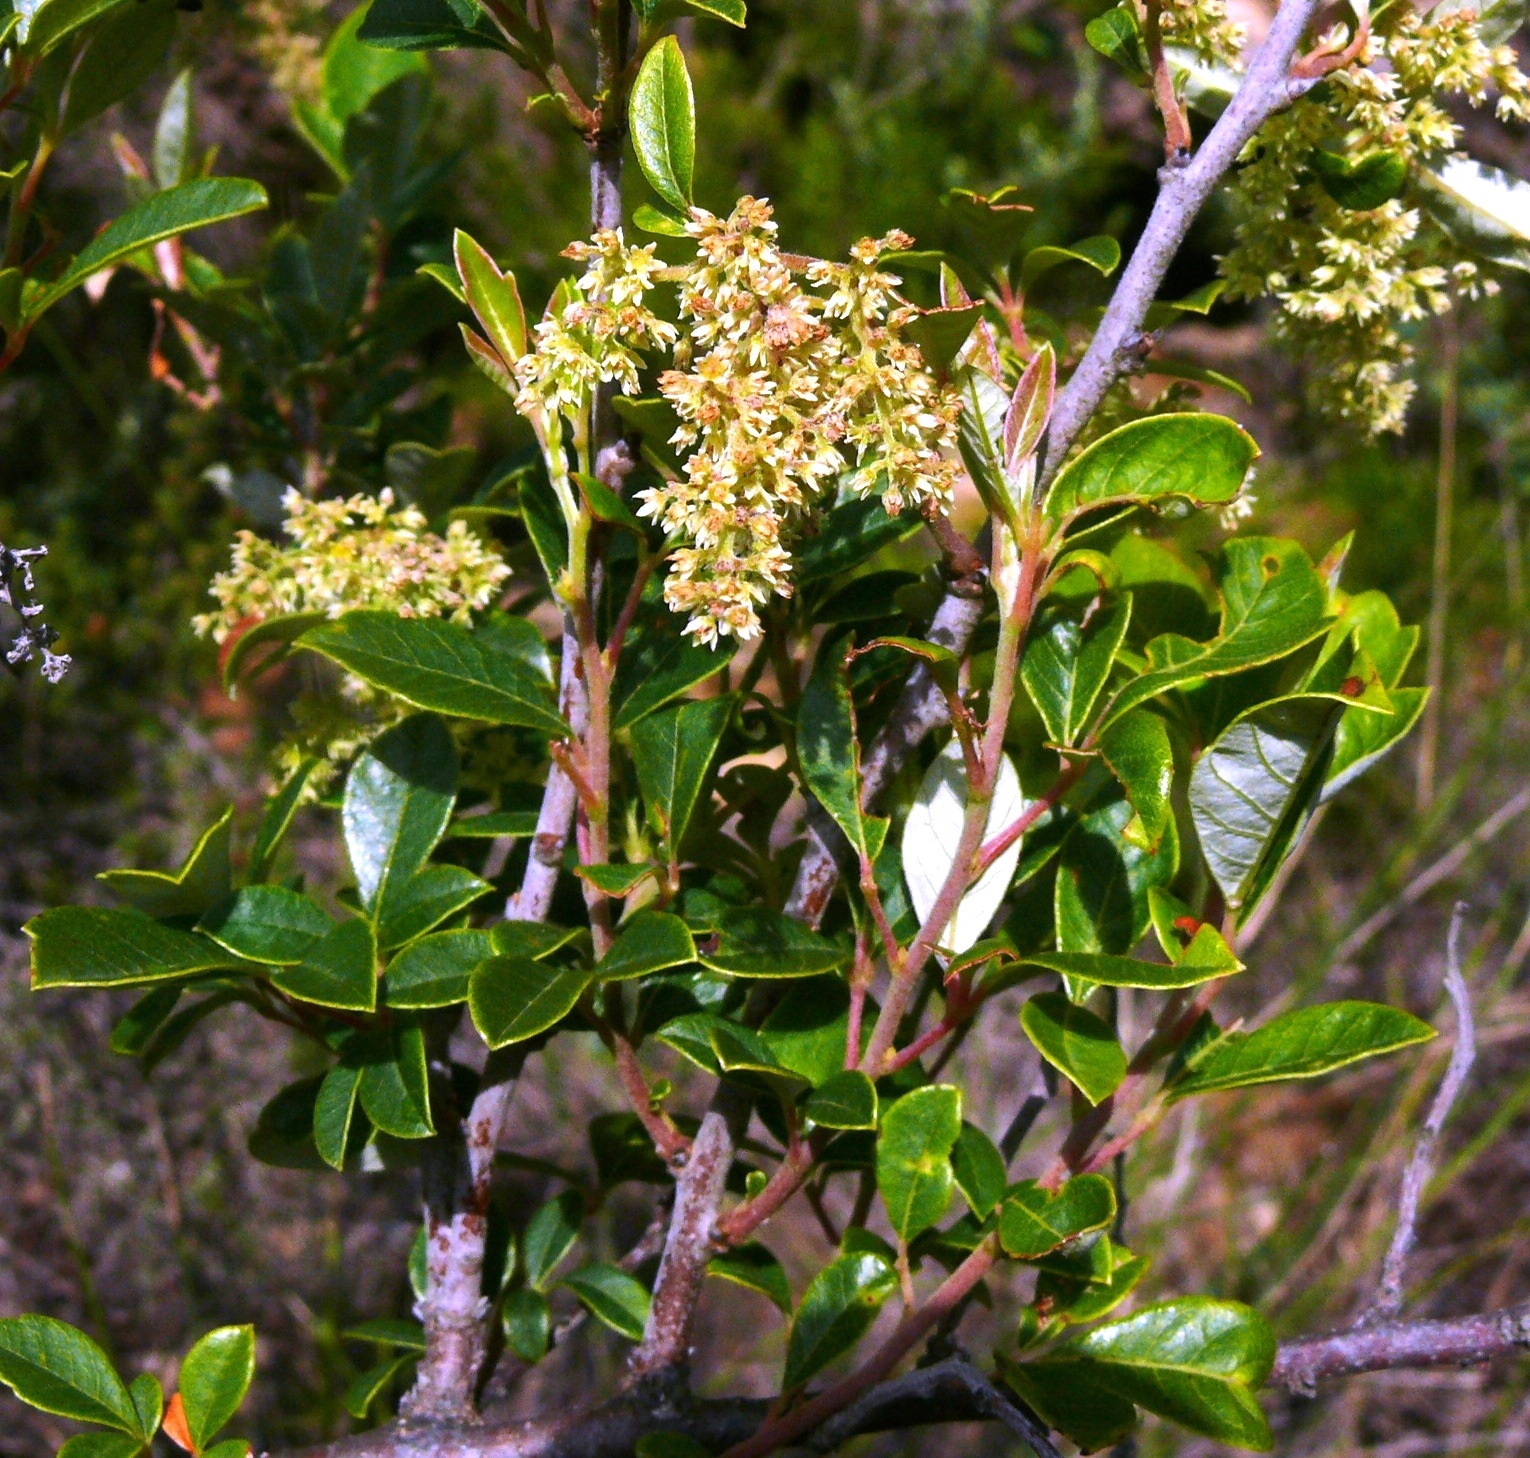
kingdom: Plantae
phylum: Tracheophyta
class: Magnoliopsida
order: Proteales
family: Proteaceae
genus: Leucadendron
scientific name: Leucadendron salignum
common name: Common sunshine conebush
